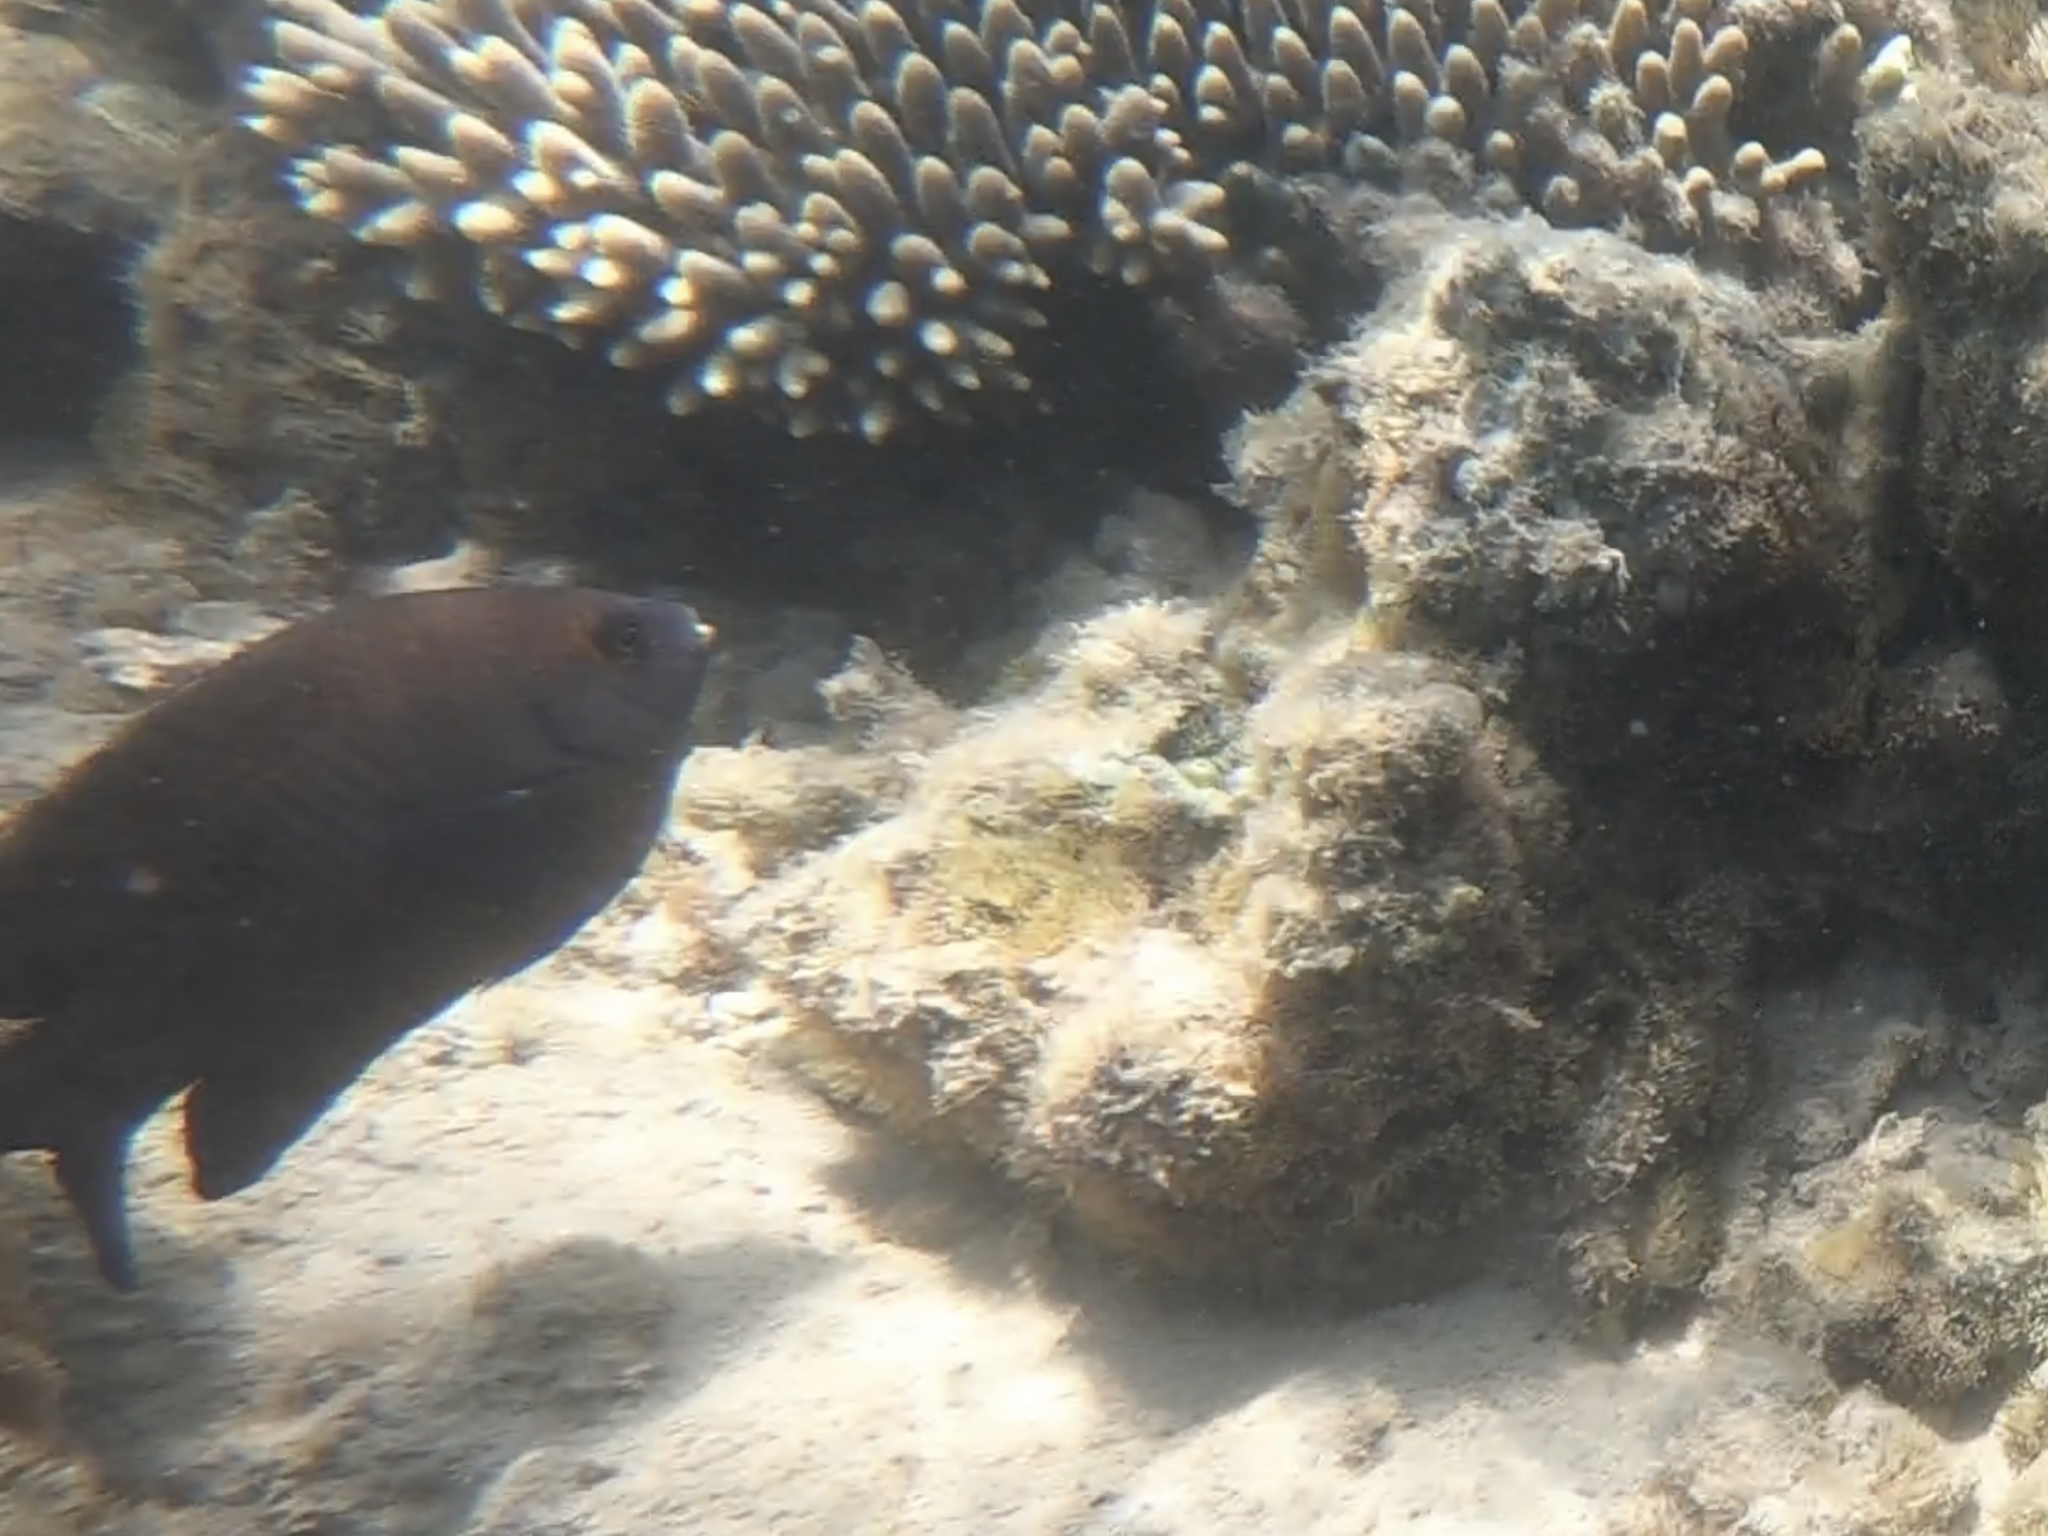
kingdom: Animalia
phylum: Chordata
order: Perciformes
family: Pomacentridae
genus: Stegastes
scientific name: Stegastes apicalis
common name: Australian gregory
